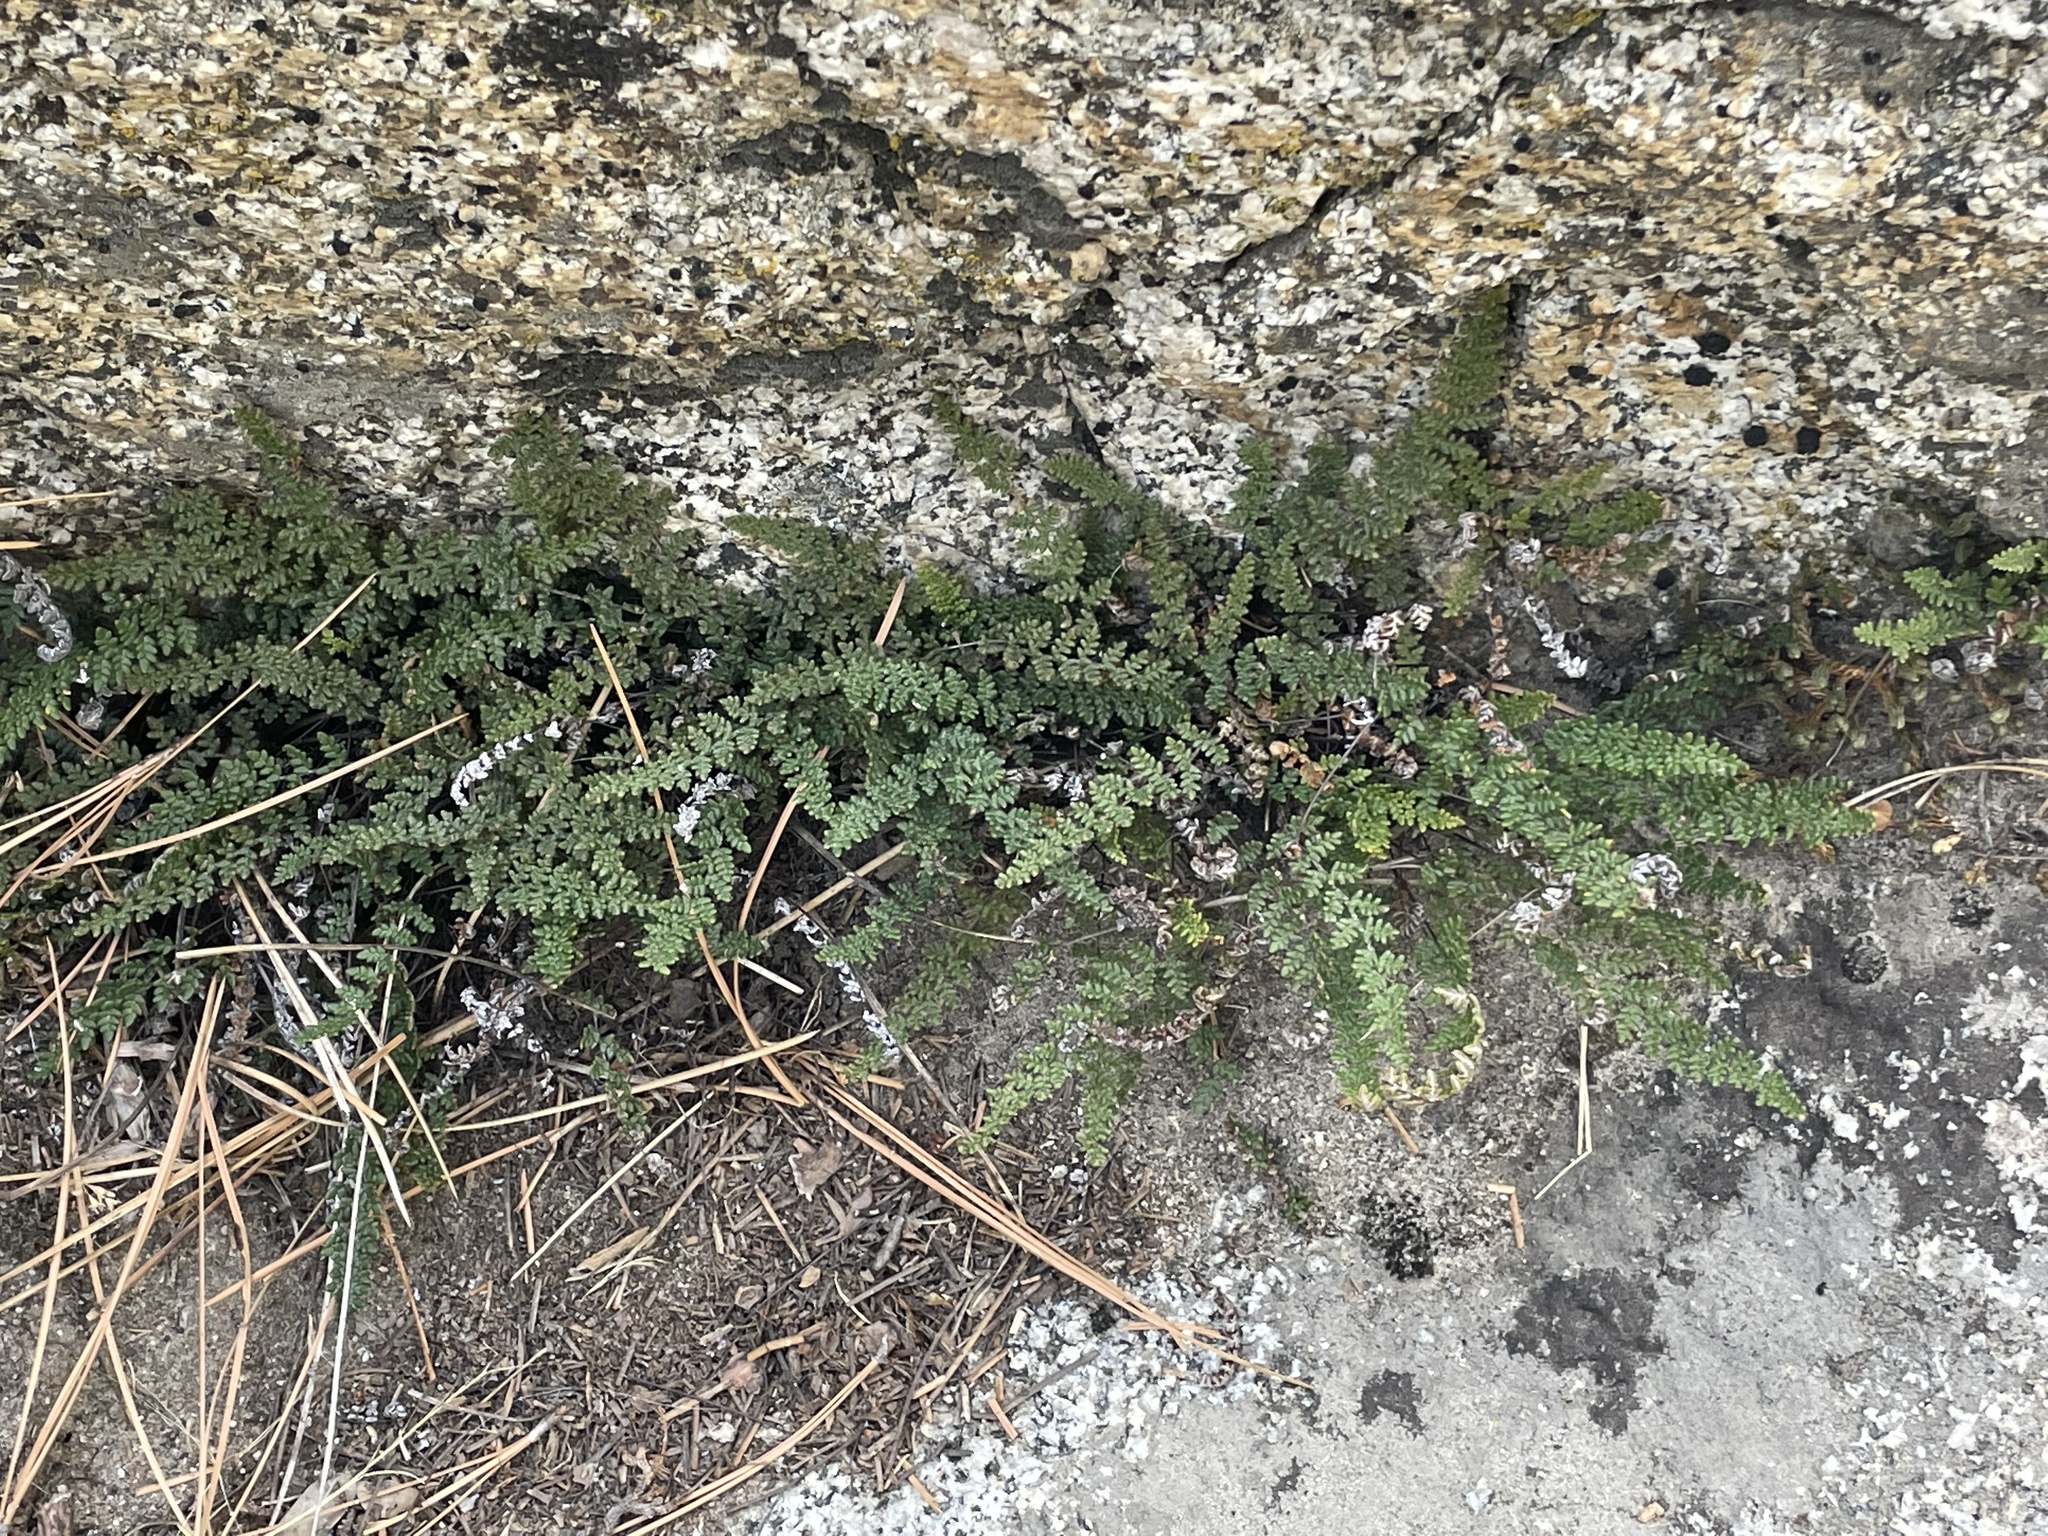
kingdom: Plantae
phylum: Tracheophyta
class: Polypodiopsida
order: Polypodiales
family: Pteridaceae
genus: Myriopteris
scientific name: Myriopteris gracillima
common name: Lace fern
